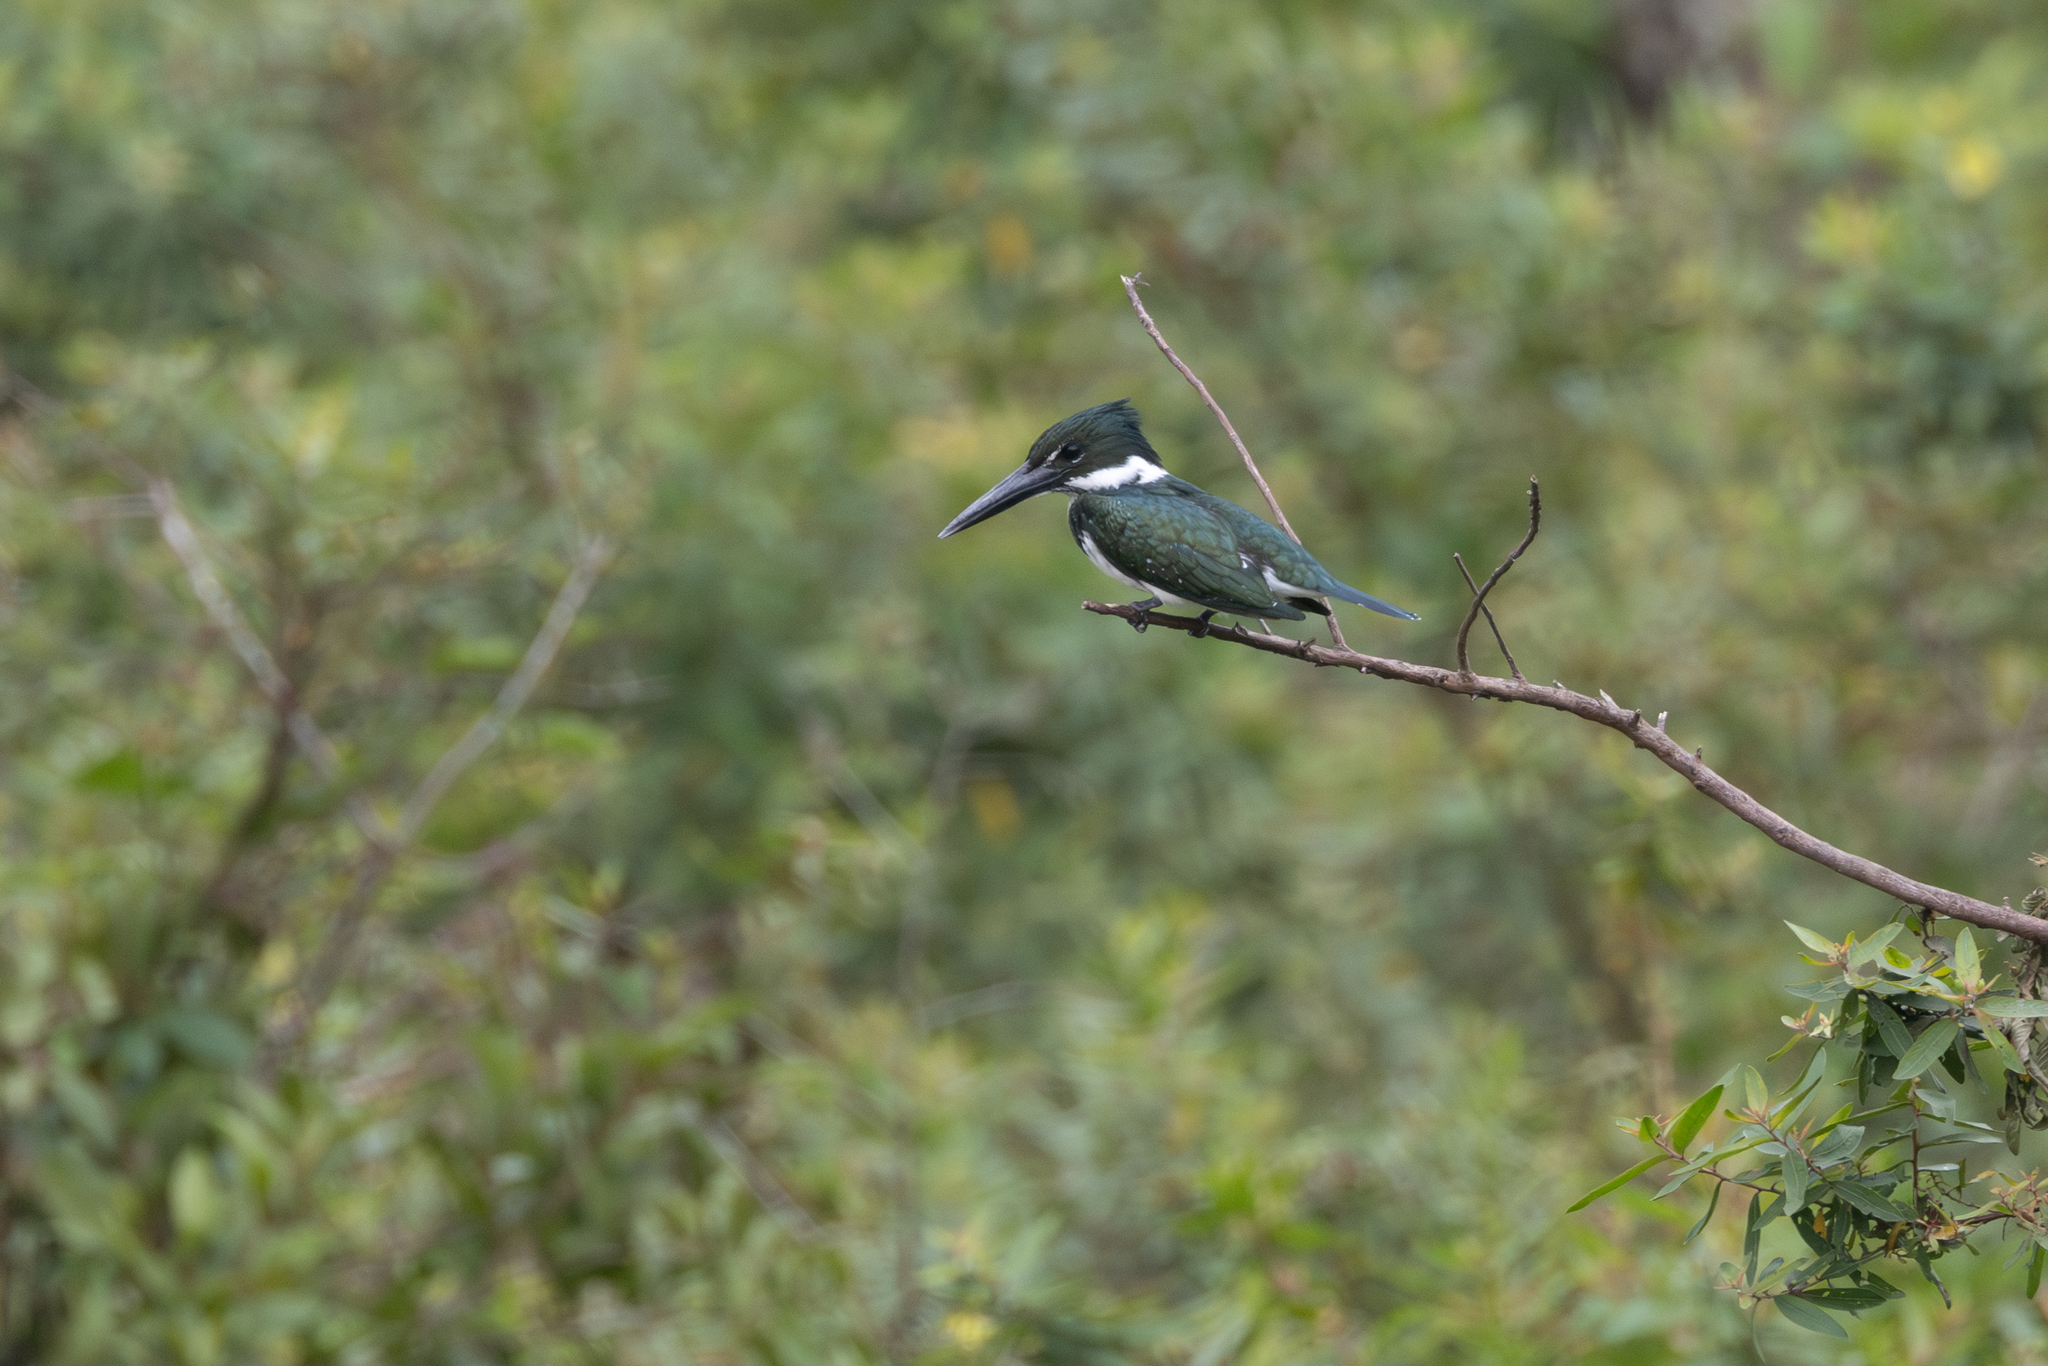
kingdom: Animalia
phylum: Chordata
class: Aves
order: Coraciiformes
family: Alcedinidae
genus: Chloroceryle
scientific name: Chloroceryle amazona
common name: Amazon kingfisher
